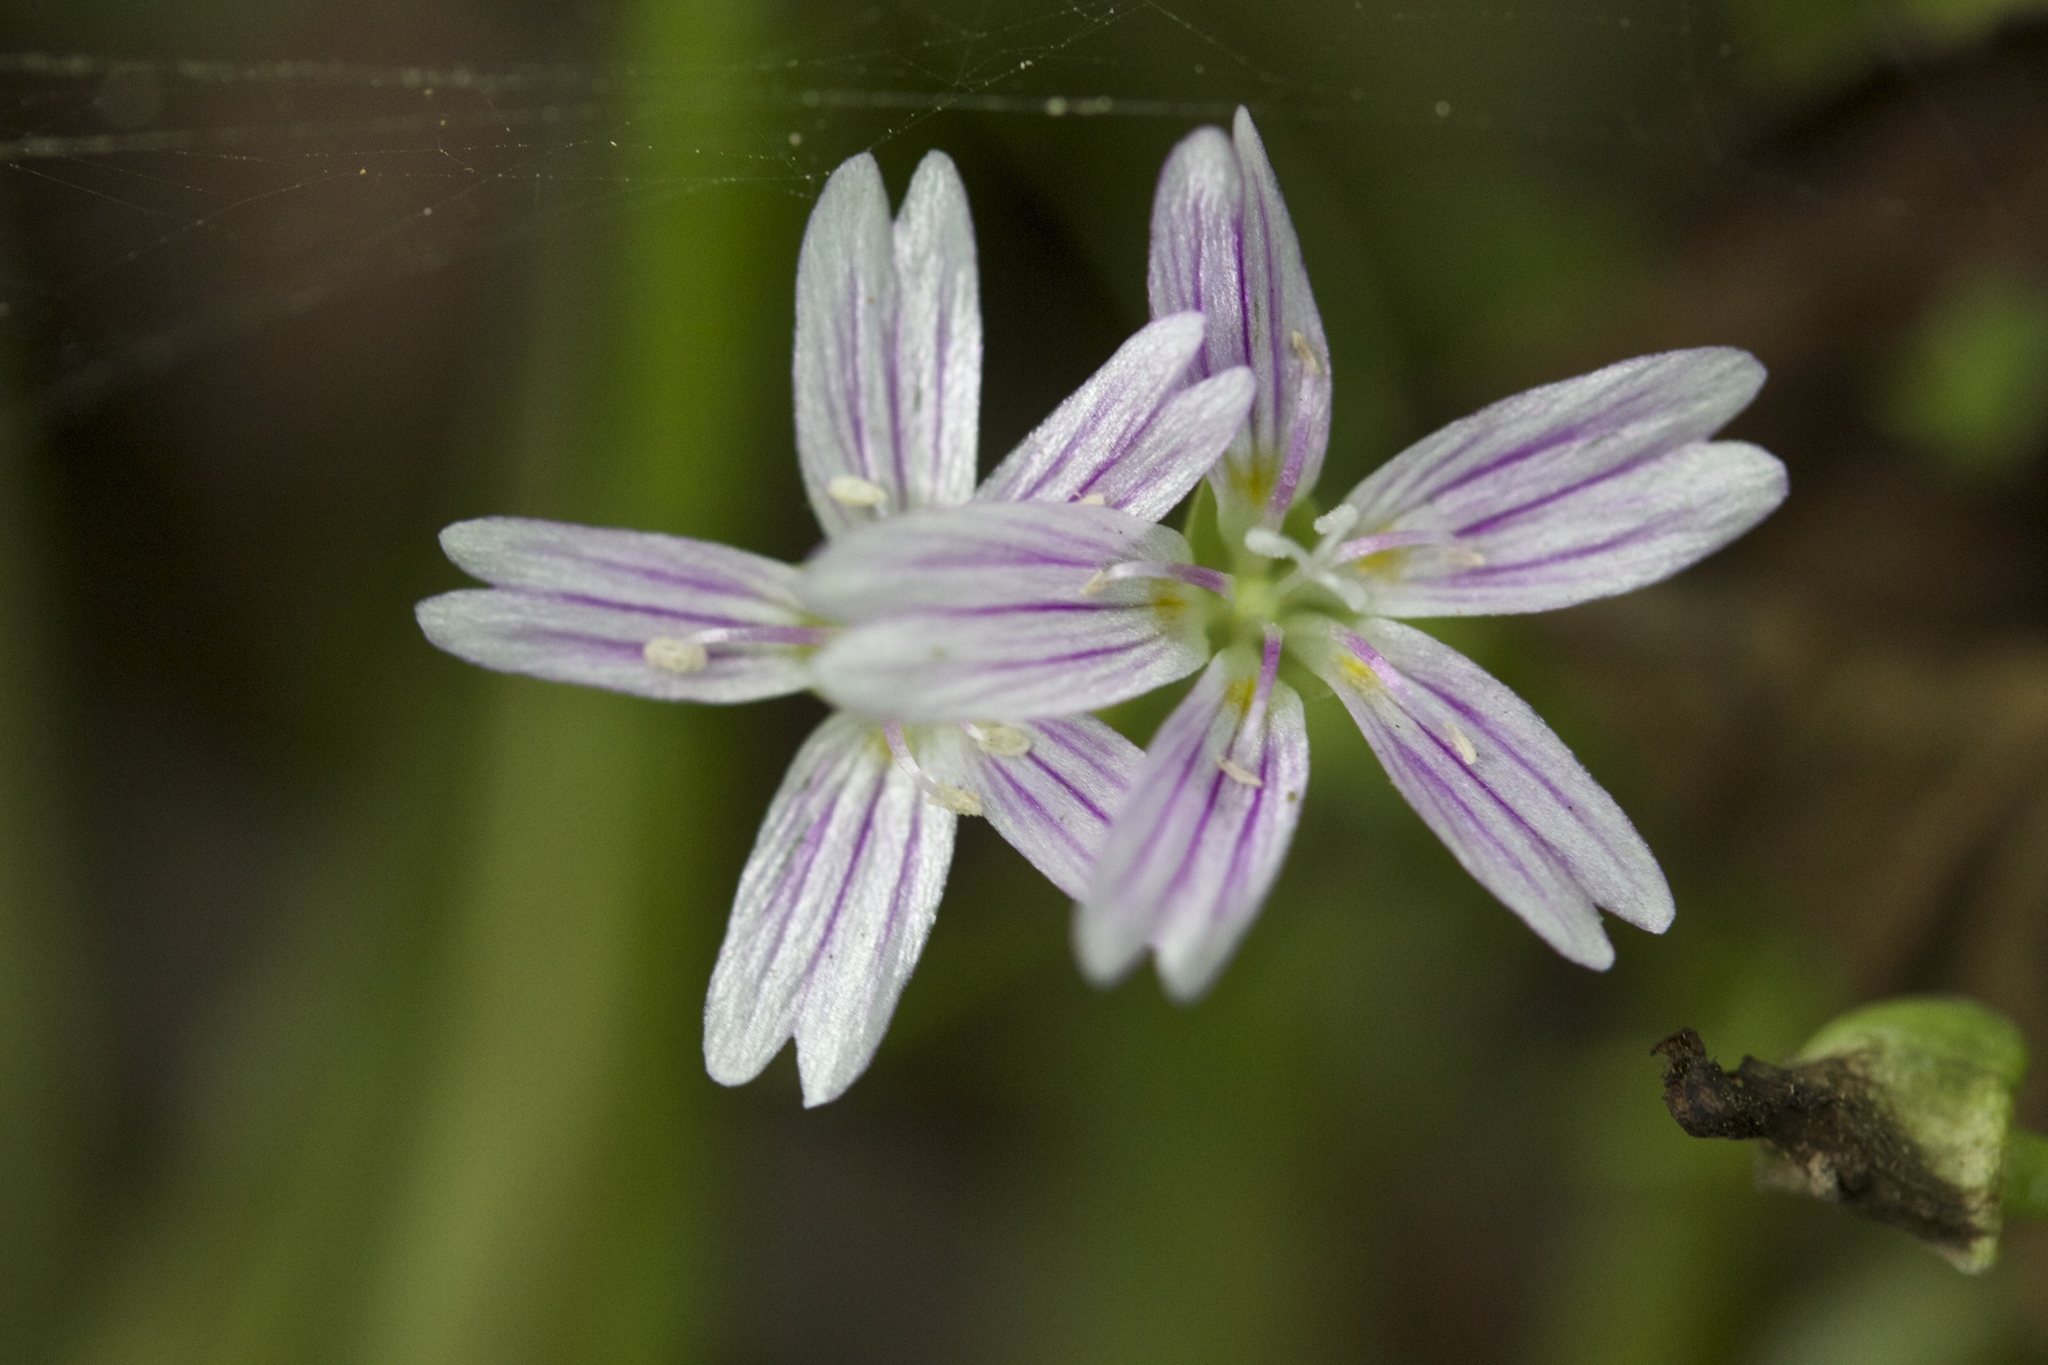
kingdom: Plantae
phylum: Tracheophyta
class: Magnoliopsida
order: Caryophyllales
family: Montiaceae
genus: Claytonia
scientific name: Claytonia sibirica
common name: Pink purslane
